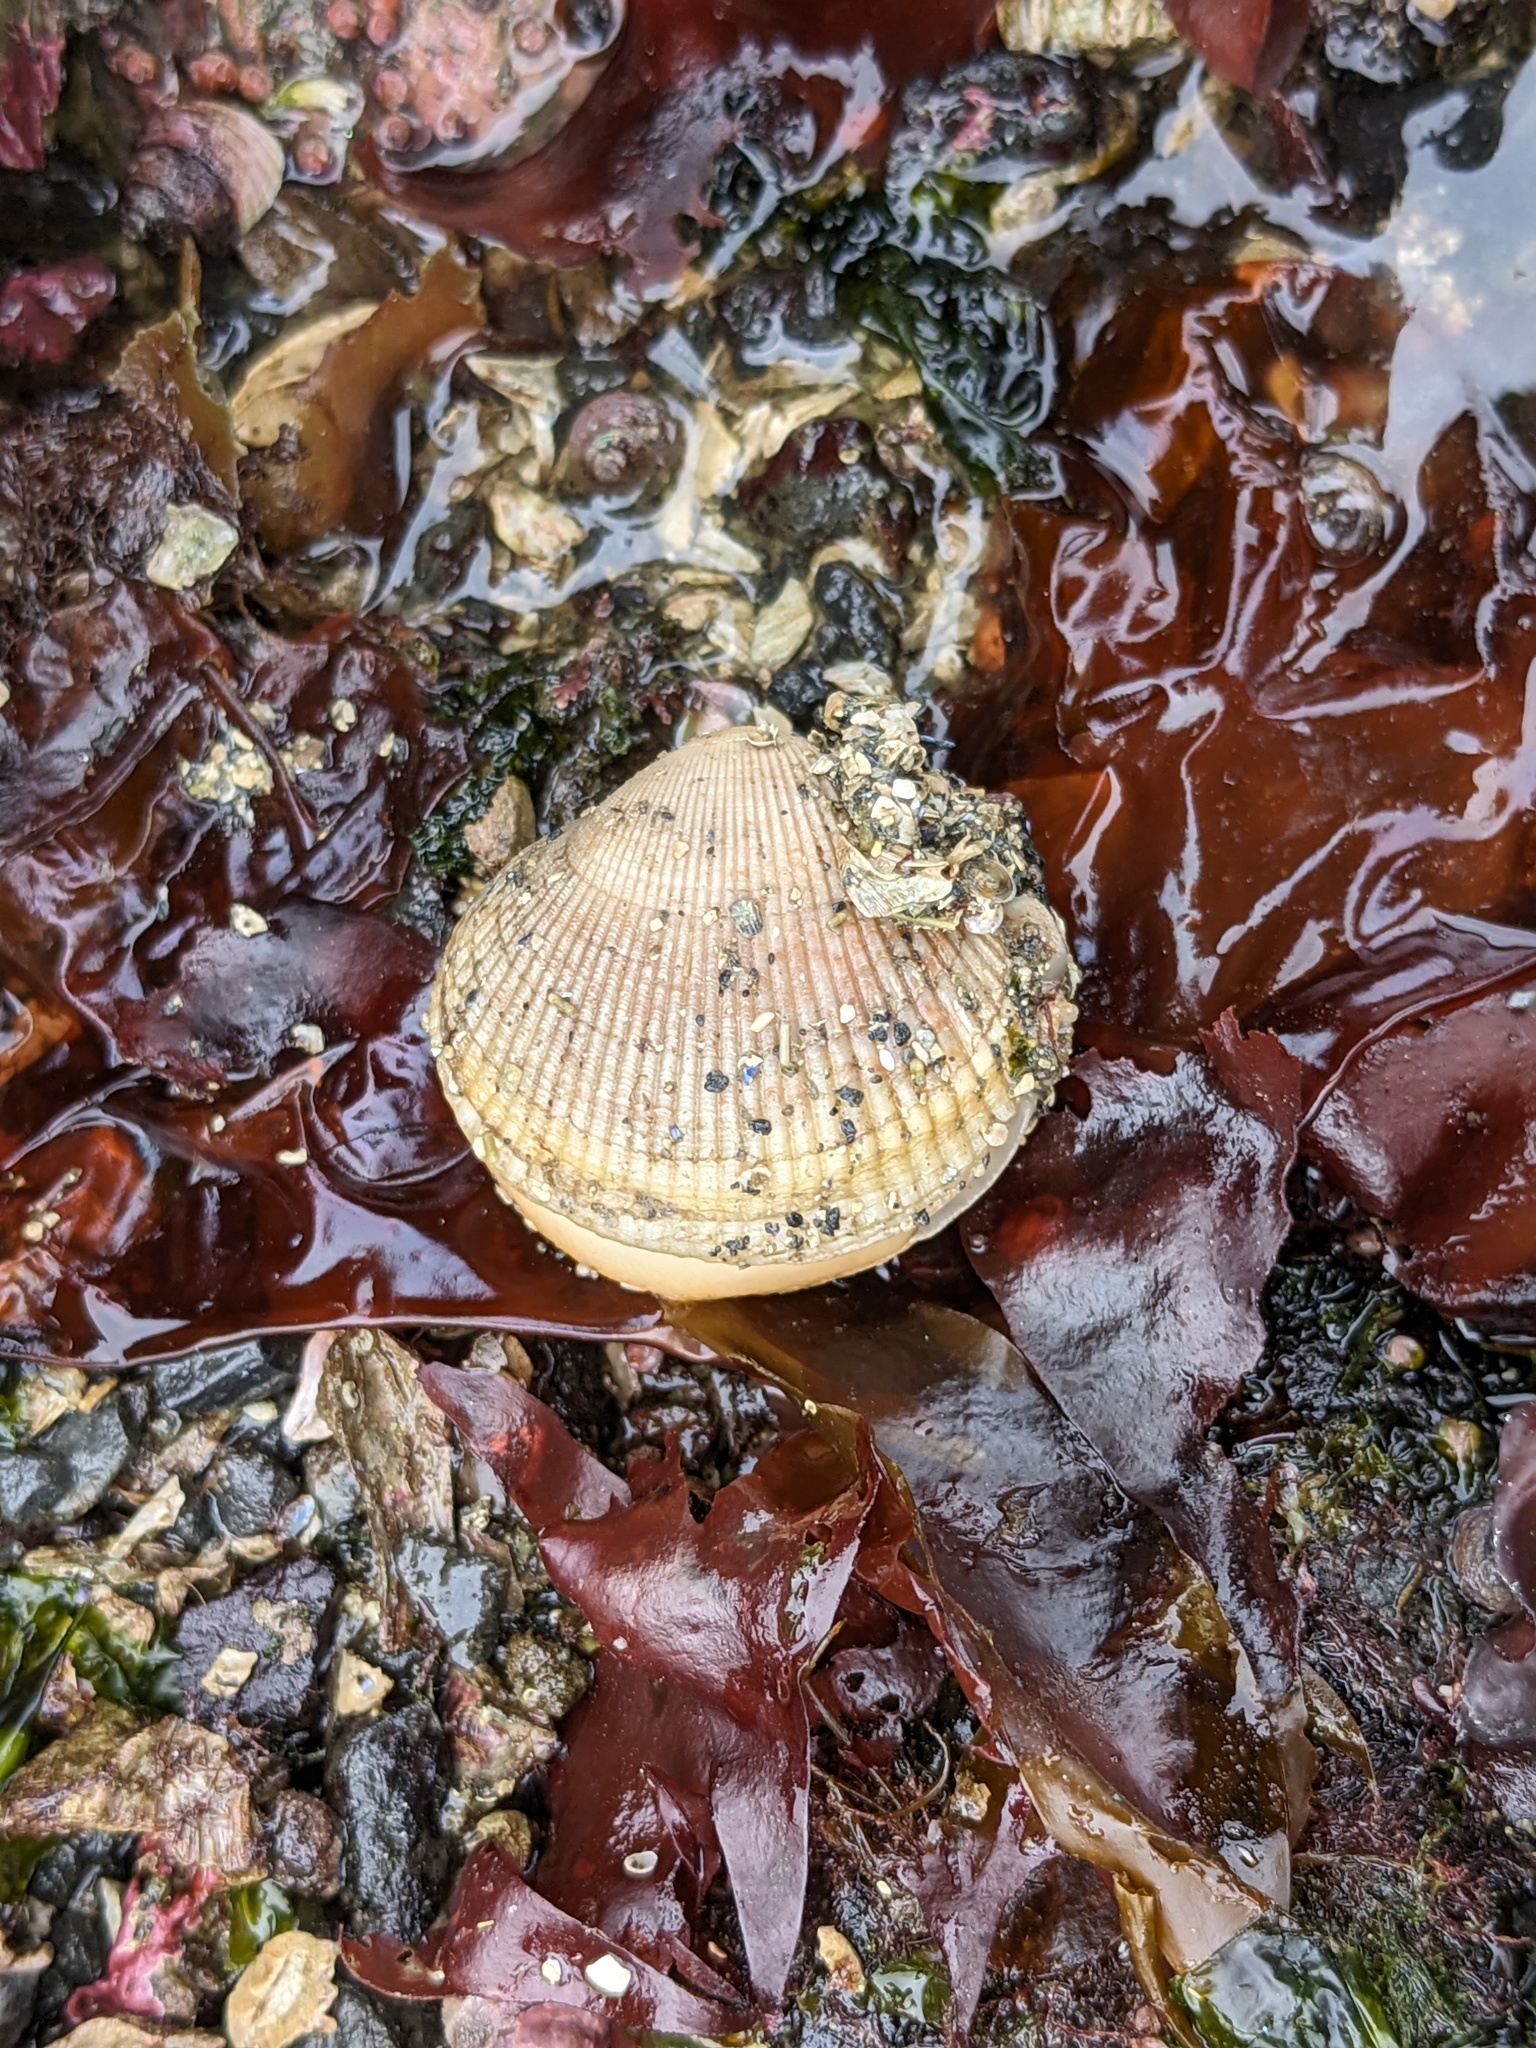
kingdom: Animalia
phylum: Mollusca
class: Bivalvia
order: Cardiida
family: Cardiidae
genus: Clinocardium
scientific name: Clinocardium nuttallii
